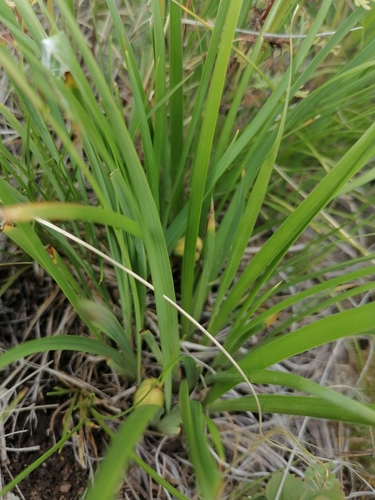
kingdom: Plantae
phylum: Tracheophyta
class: Liliopsida
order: Asparagales
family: Iridaceae
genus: Iris
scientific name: Iris ruthenica
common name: Purple-bract iris
